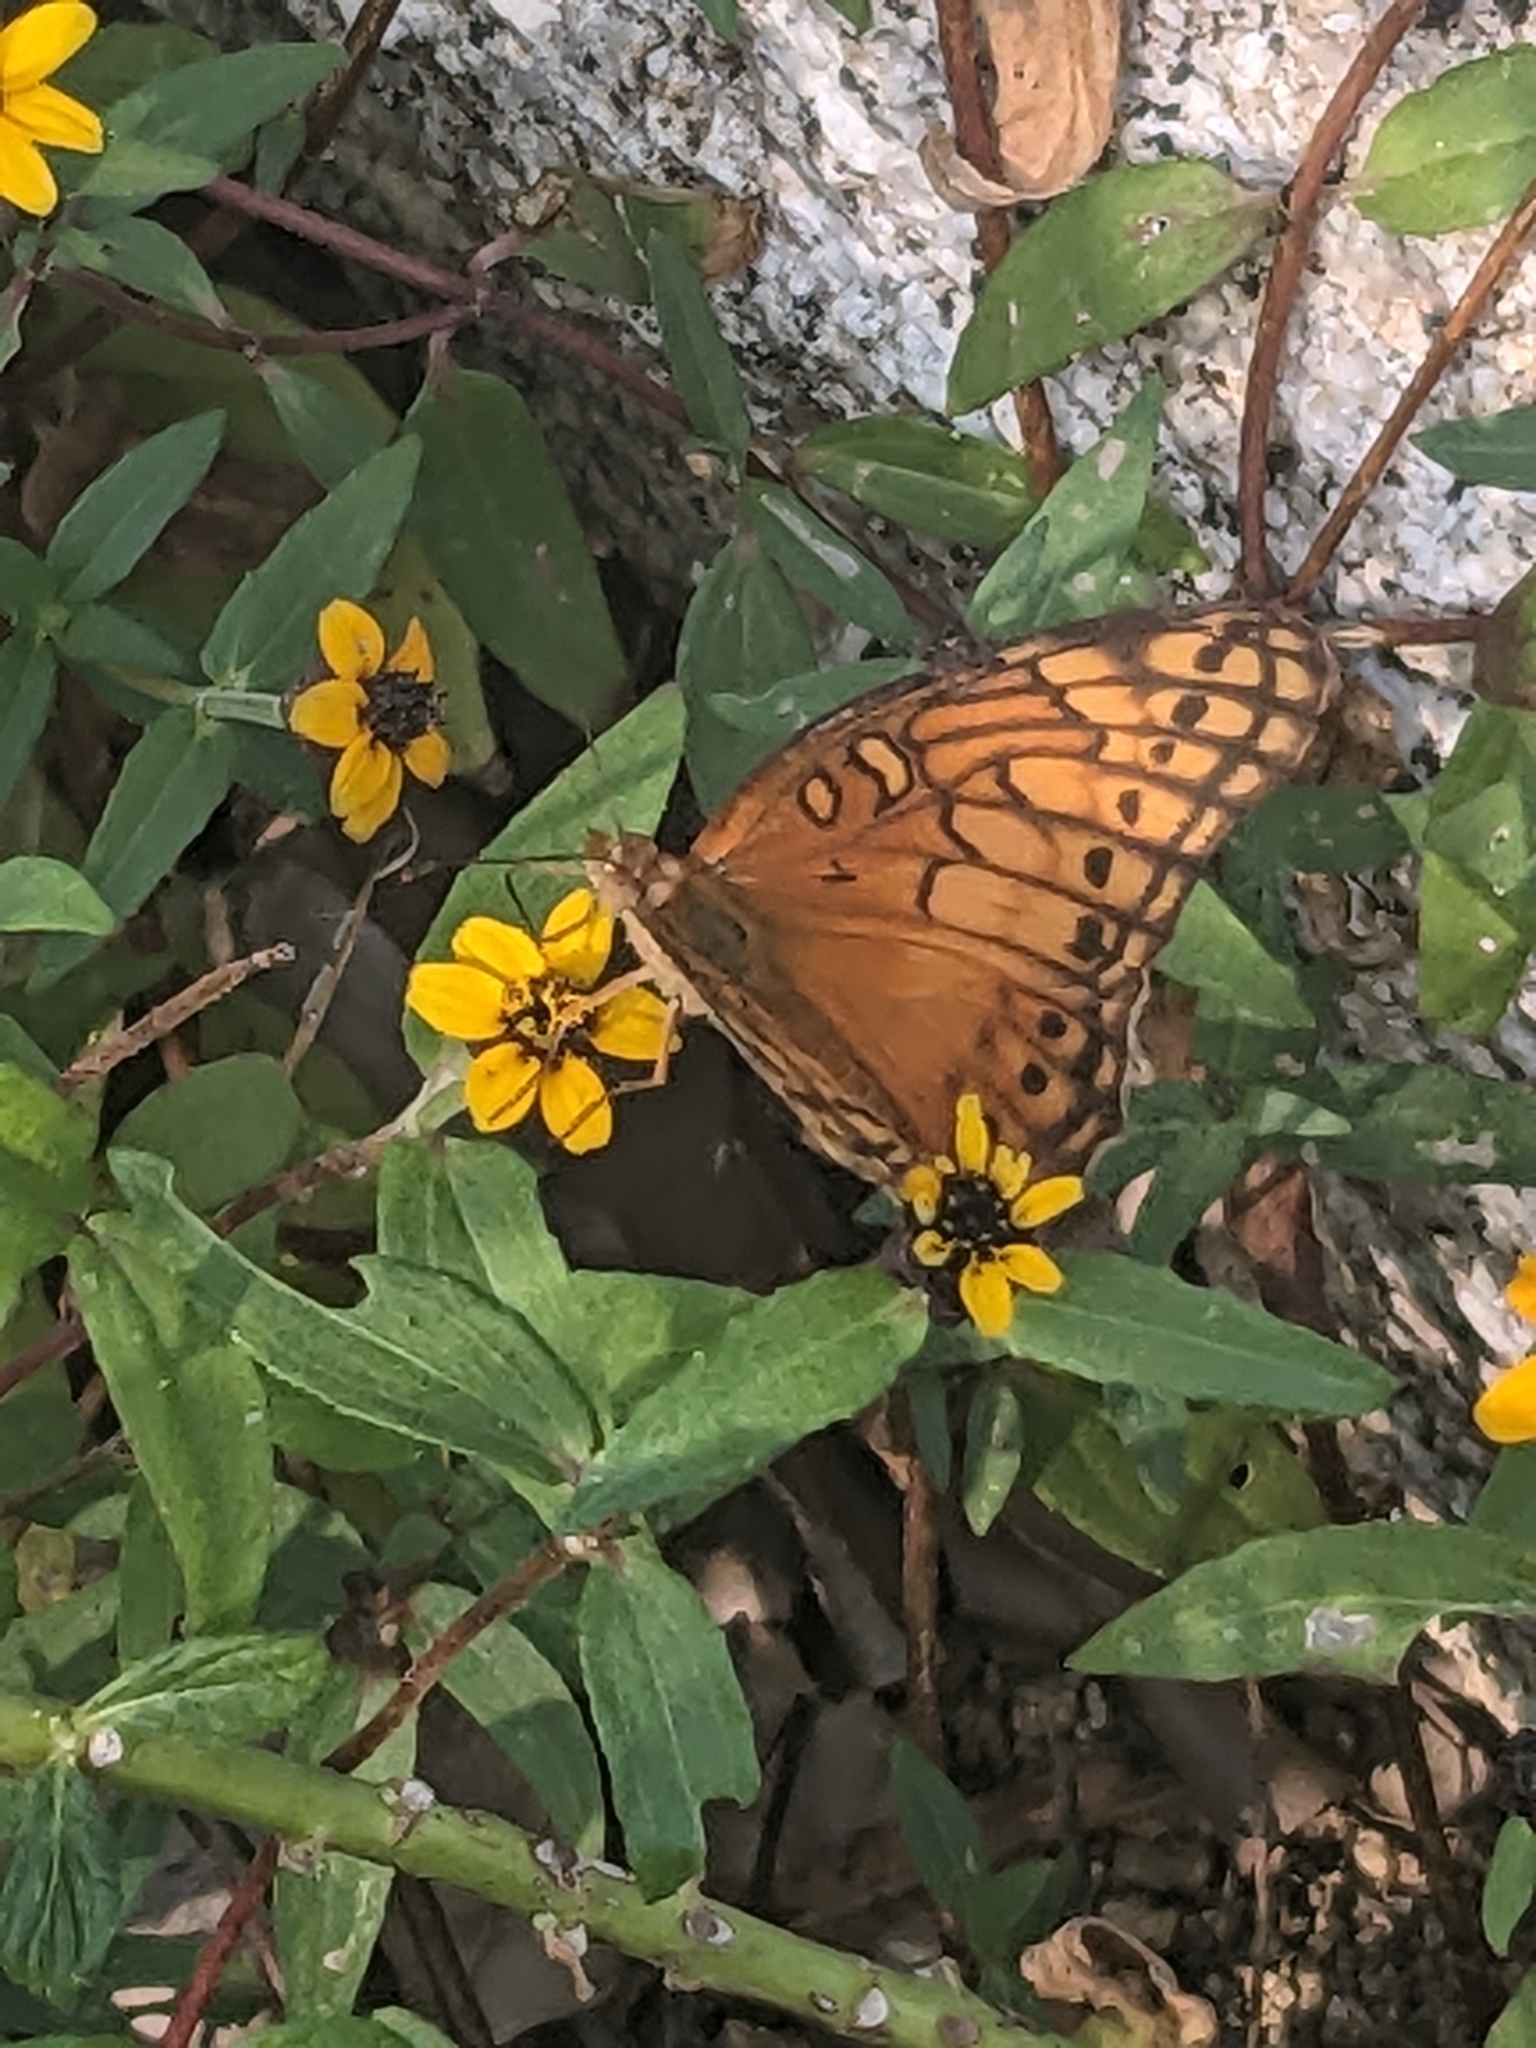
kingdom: Animalia
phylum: Arthropoda
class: Insecta
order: Lepidoptera
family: Nymphalidae
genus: Euptoieta
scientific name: Euptoieta hegesia
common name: Mexican fritillary
